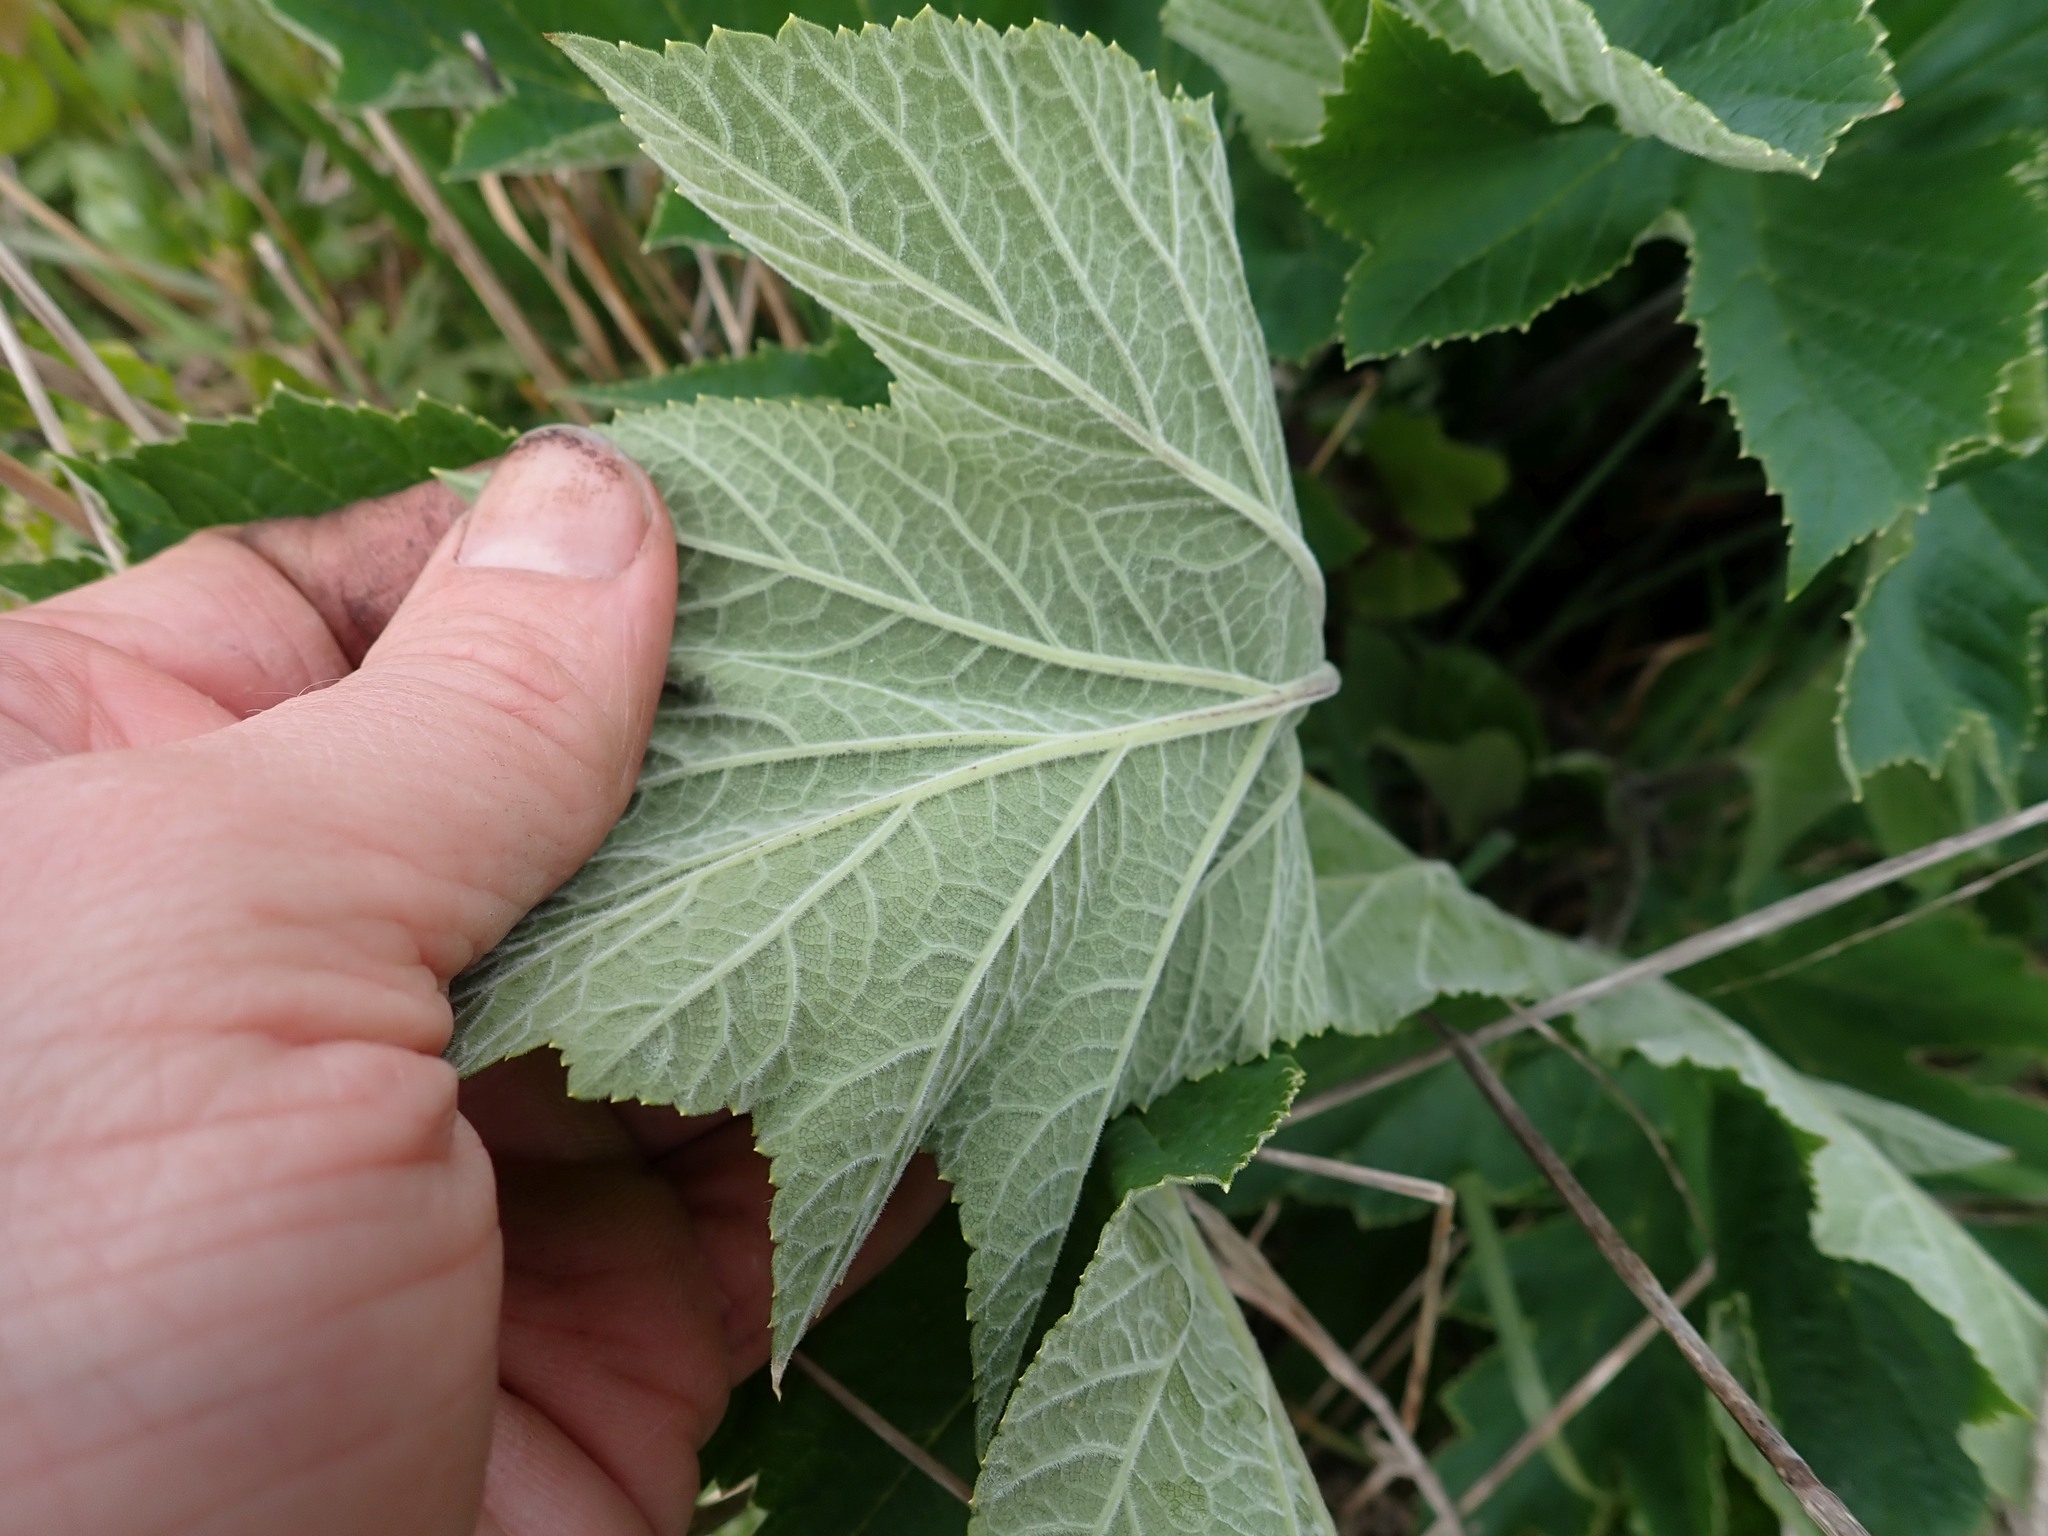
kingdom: Plantae
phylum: Tracheophyta
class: Magnoliopsida
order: Apiales
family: Apiaceae
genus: Heracleum
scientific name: Heracleum maximum
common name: American cow parsnip
